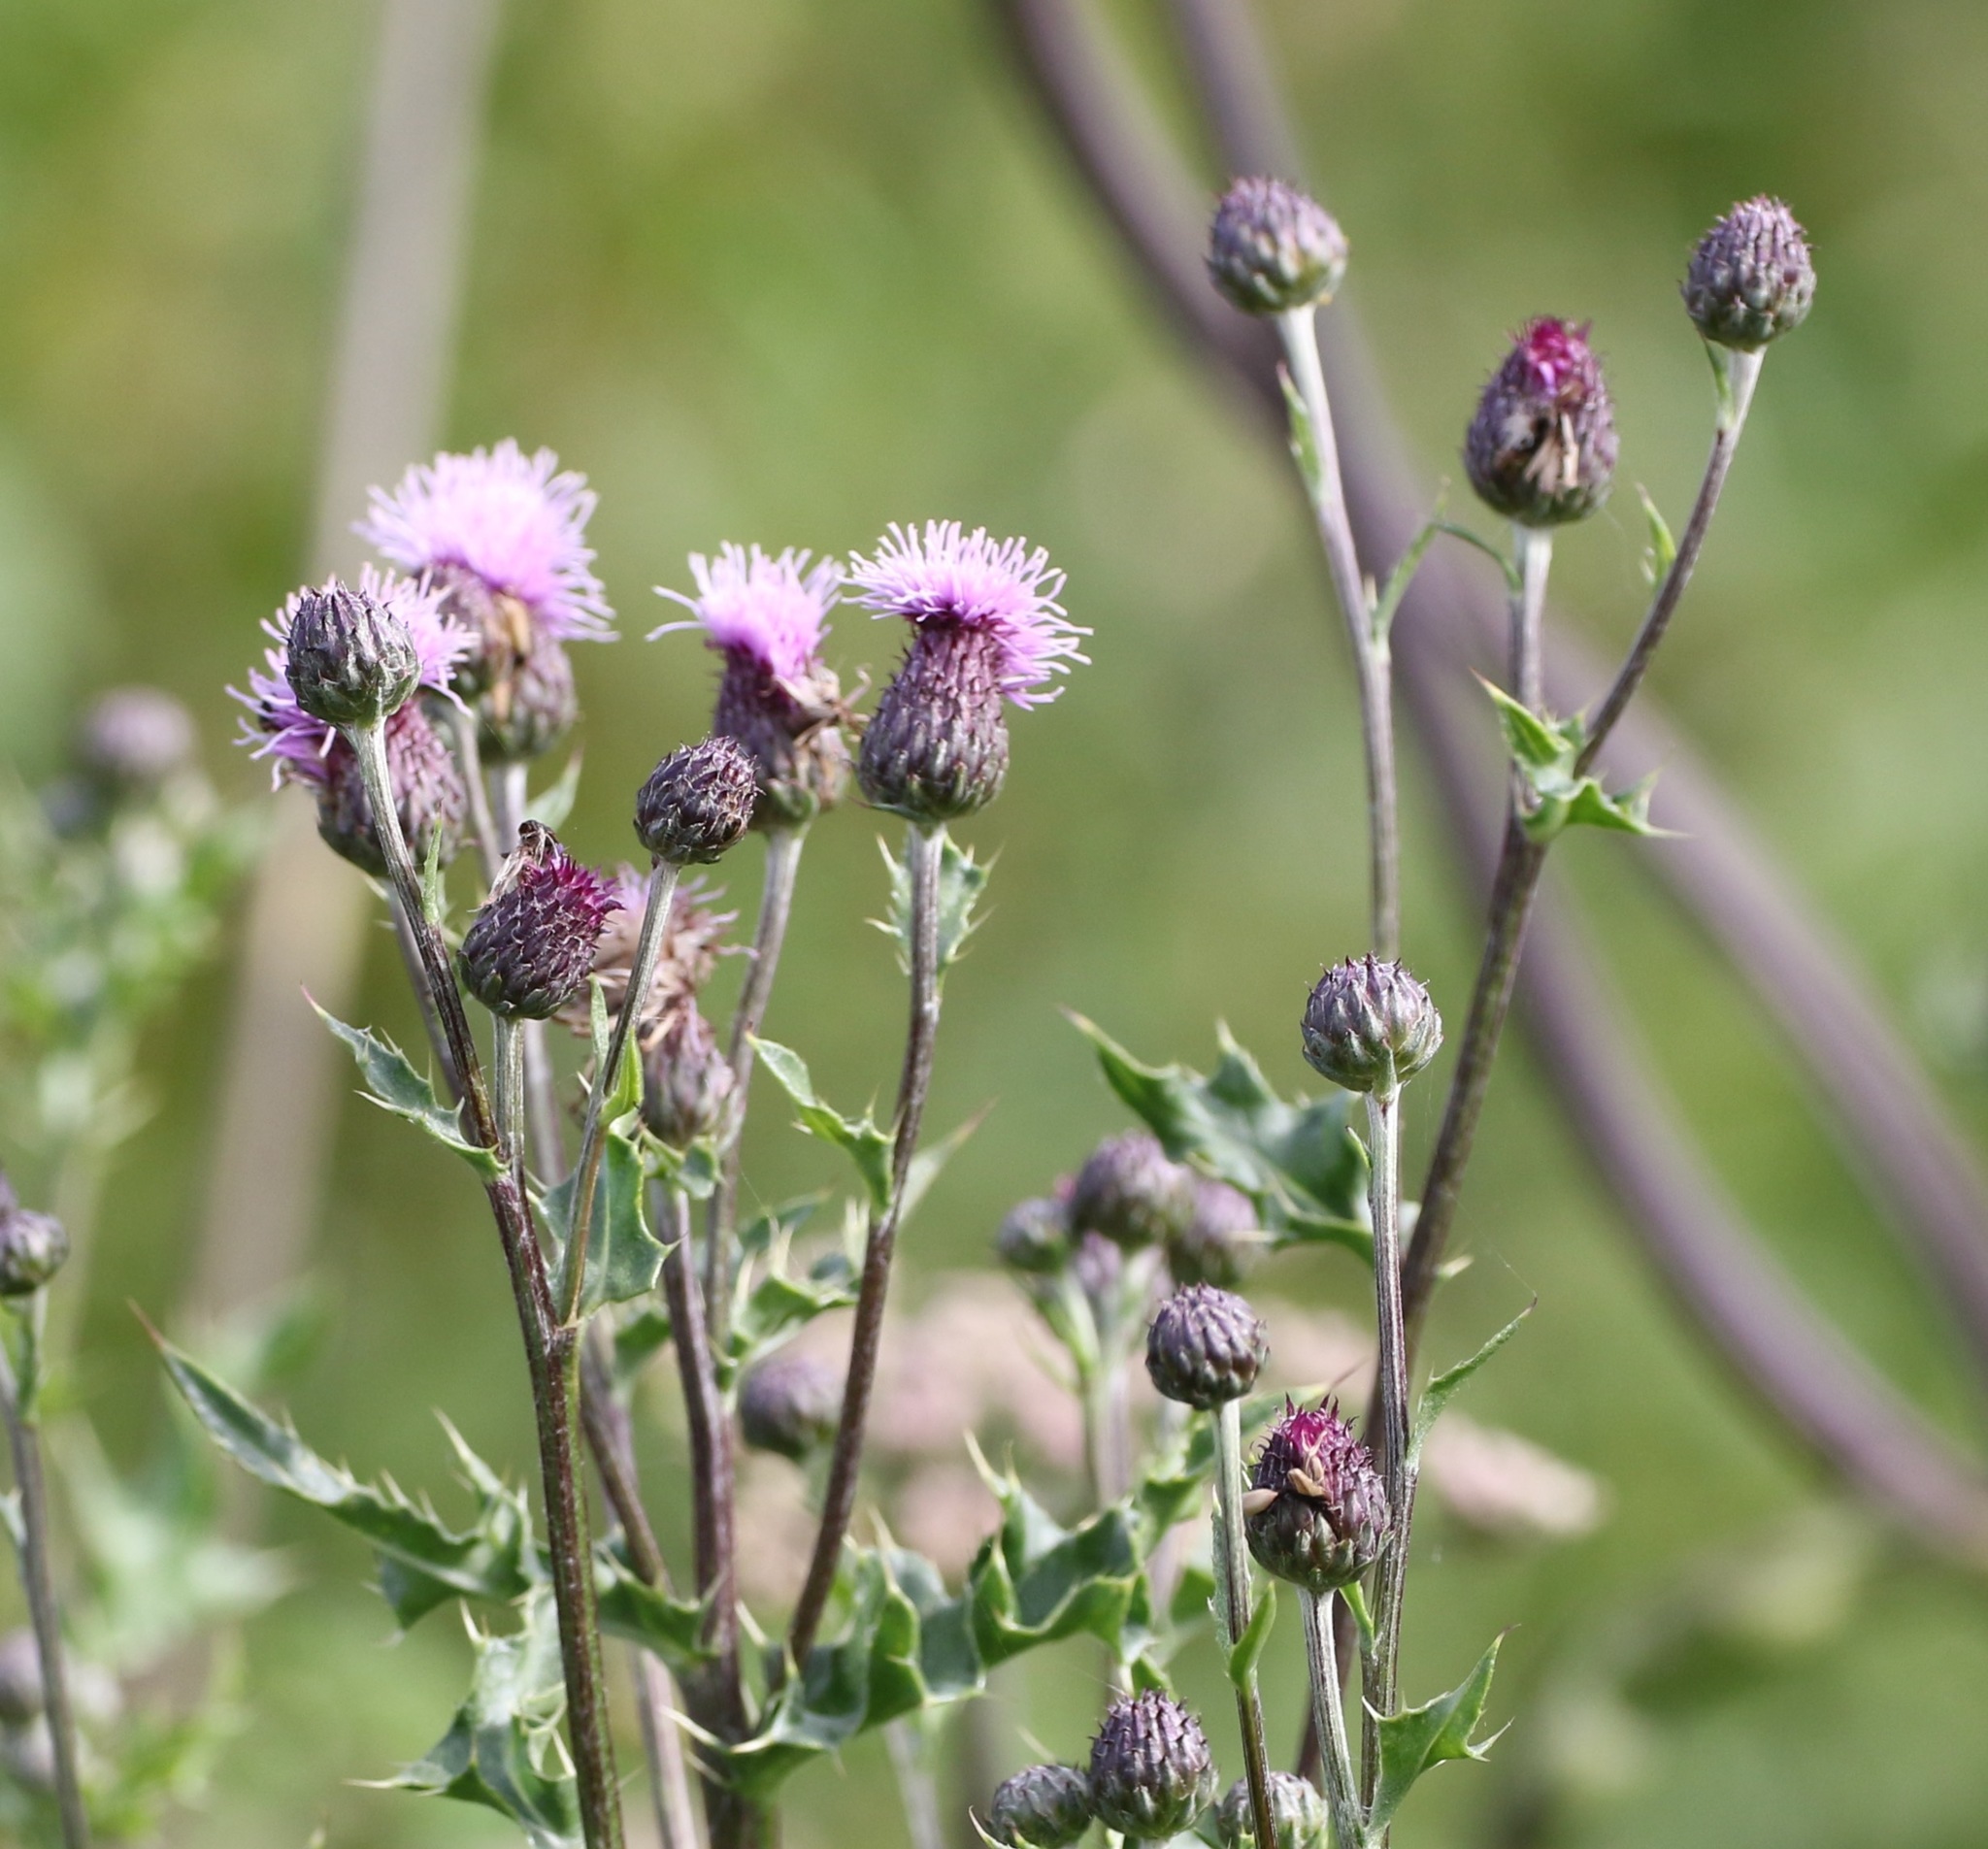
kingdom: Plantae
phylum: Tracheophyta
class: Magnoliopsida
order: Asterales
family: Asteraceae
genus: Cirsium
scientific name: Cirsium arvense
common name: Creeping thistle
